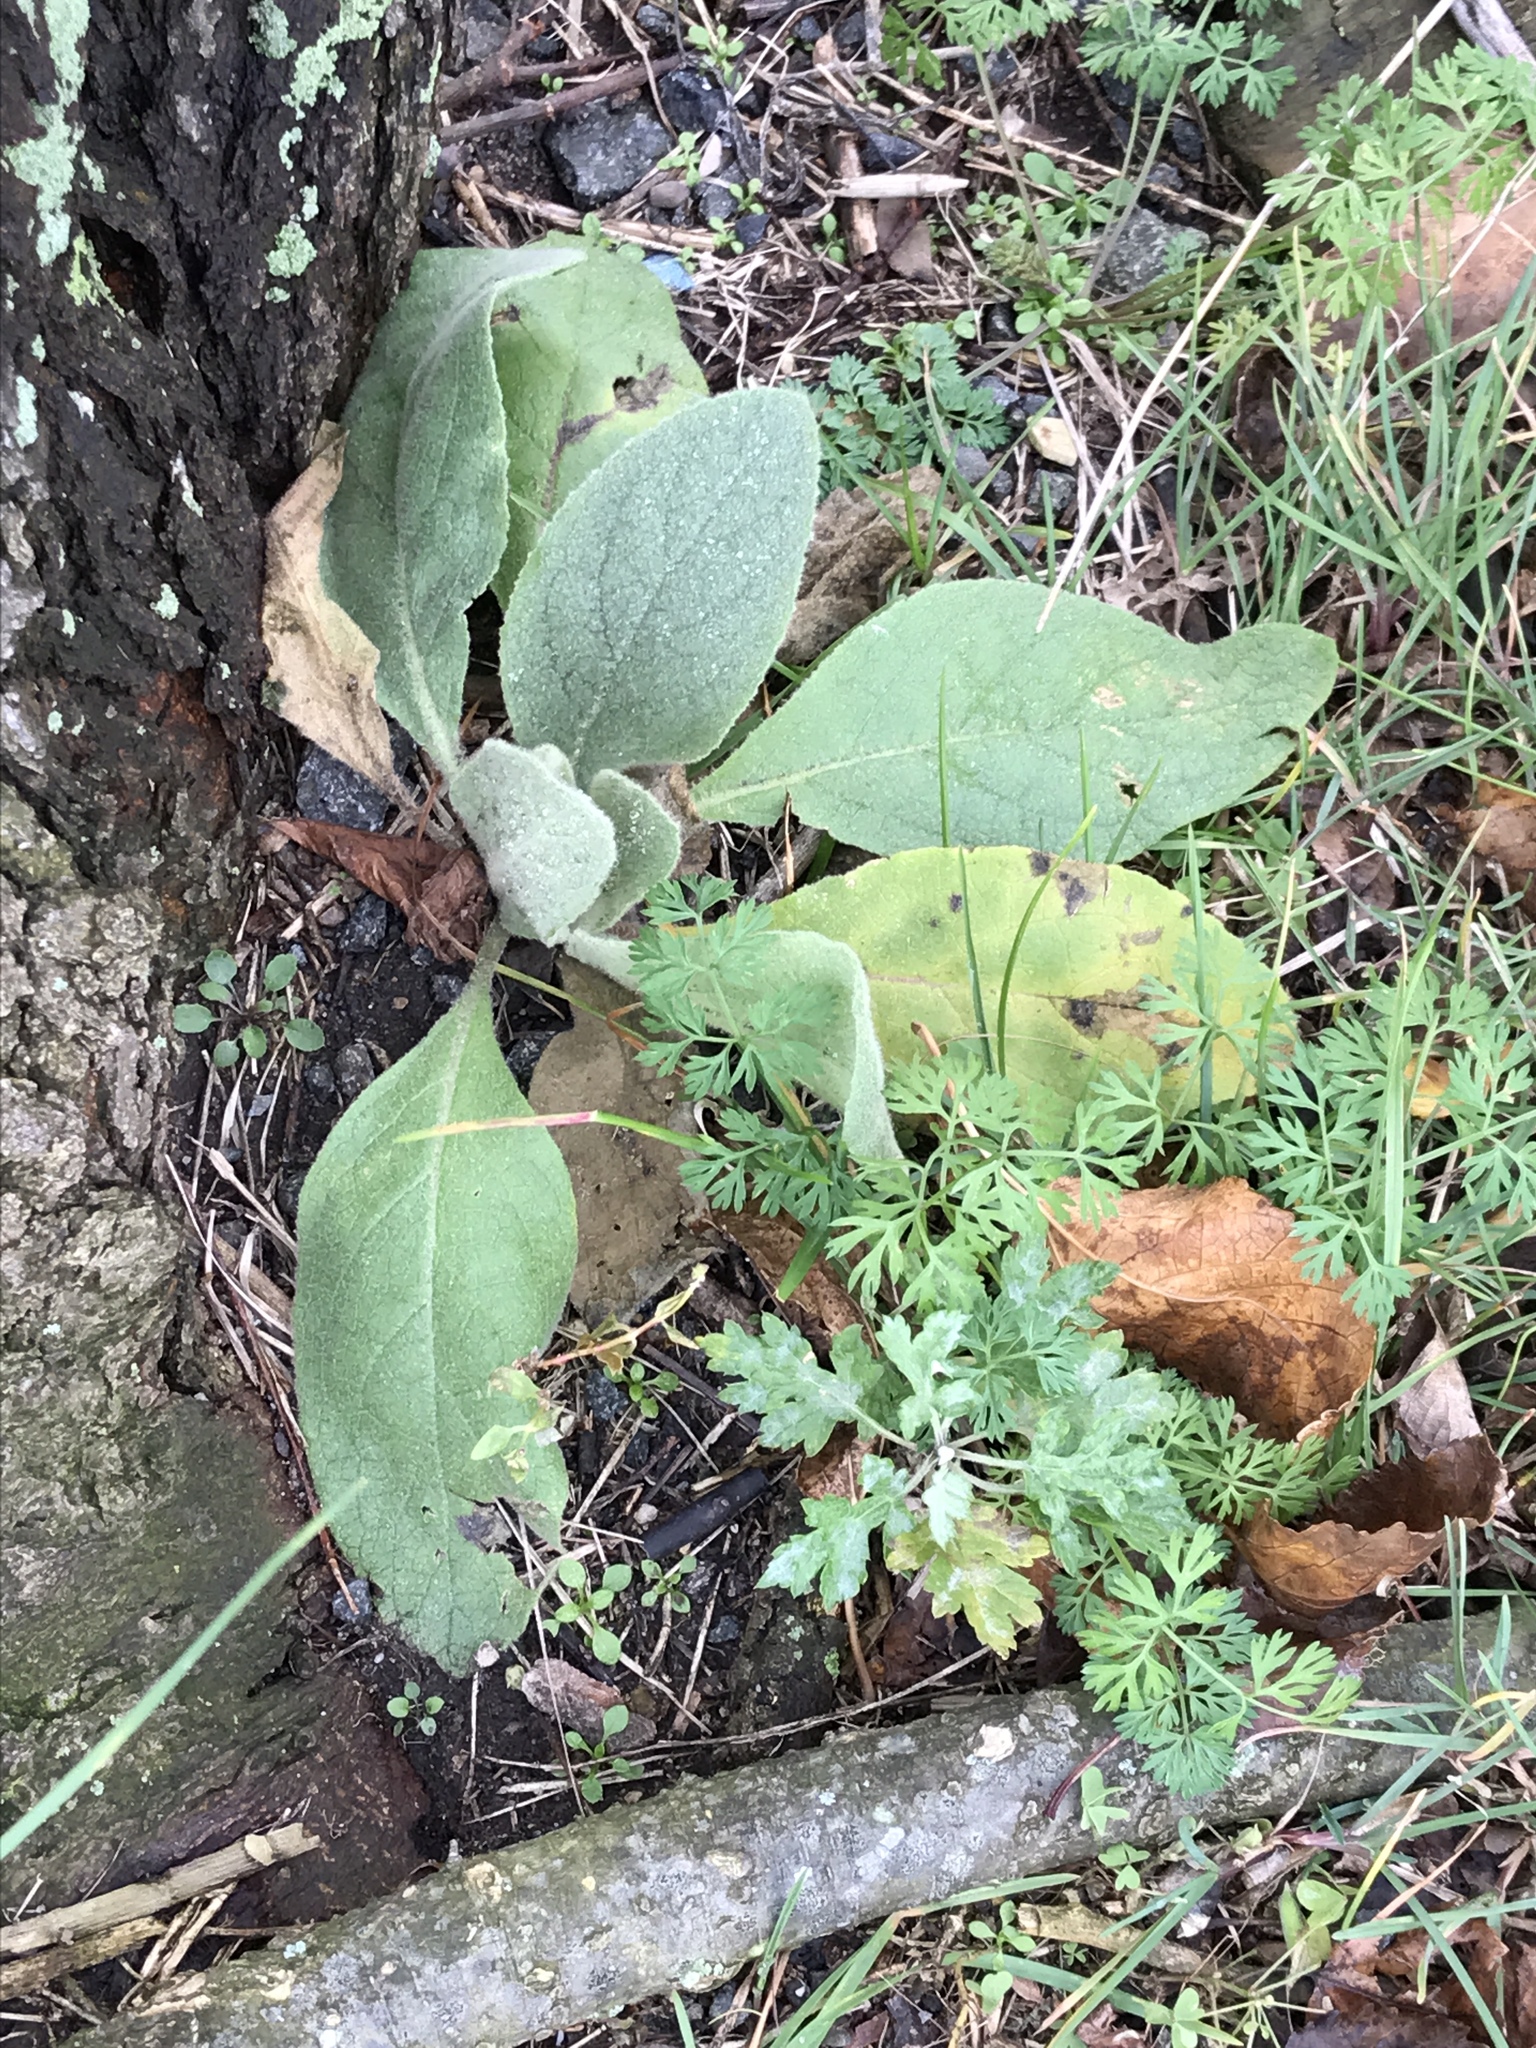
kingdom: Plantae
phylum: Tracheophyta
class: Magnoliopsida
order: Lamiales
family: Scrophulariaceae
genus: Verbascum
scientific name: Verbascum thapsus
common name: Common mullein
